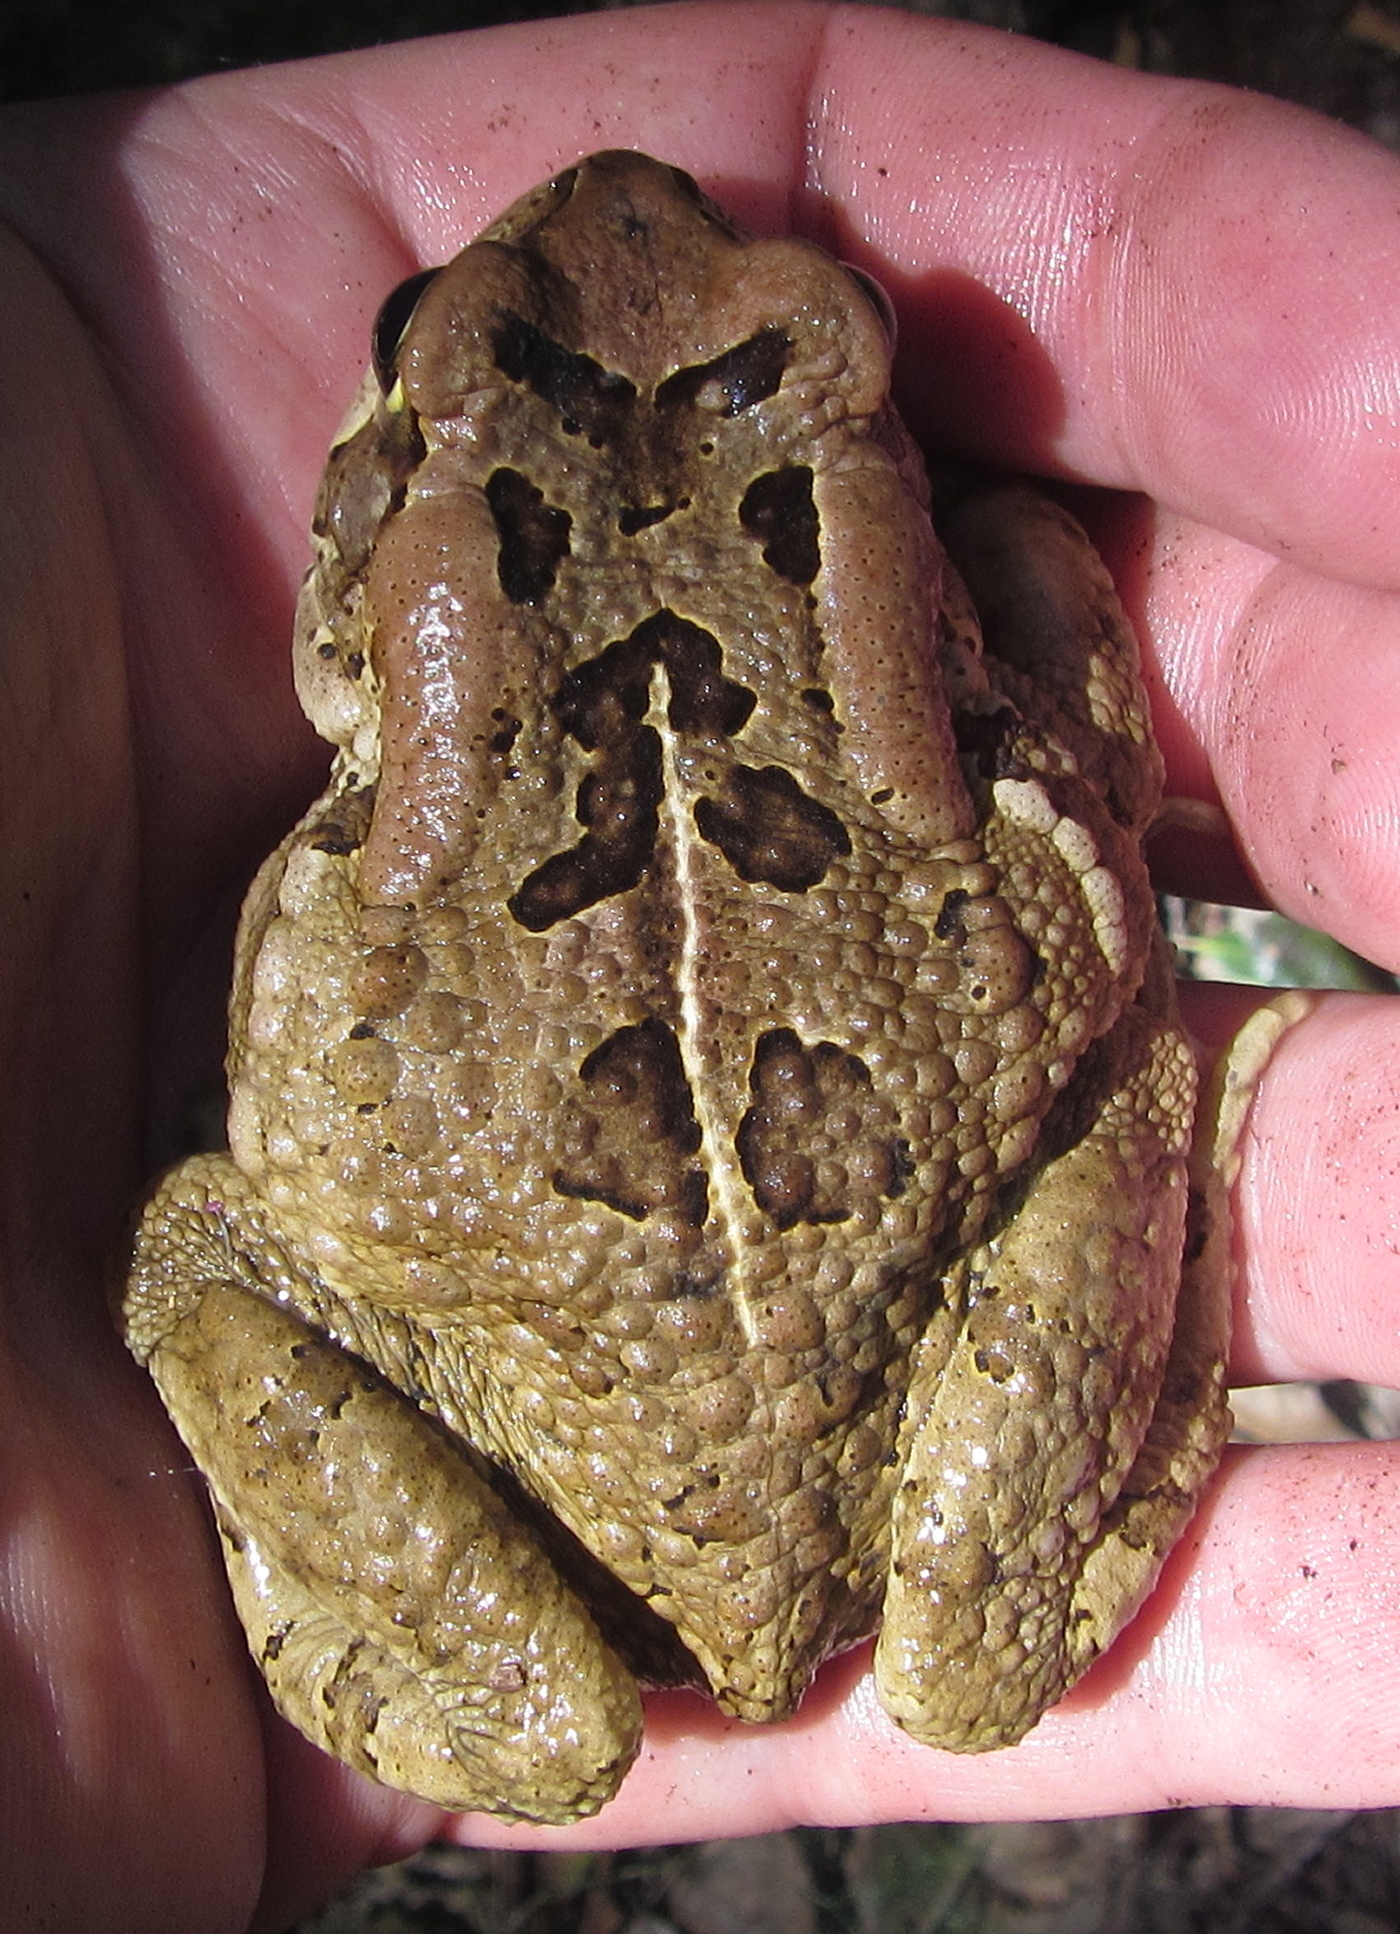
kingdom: Animalia
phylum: Chordata
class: Amphibia
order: Anura
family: Bufonidae
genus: Sclerophrys
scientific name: Sclerophrys capensis
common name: Ranger’s toad
